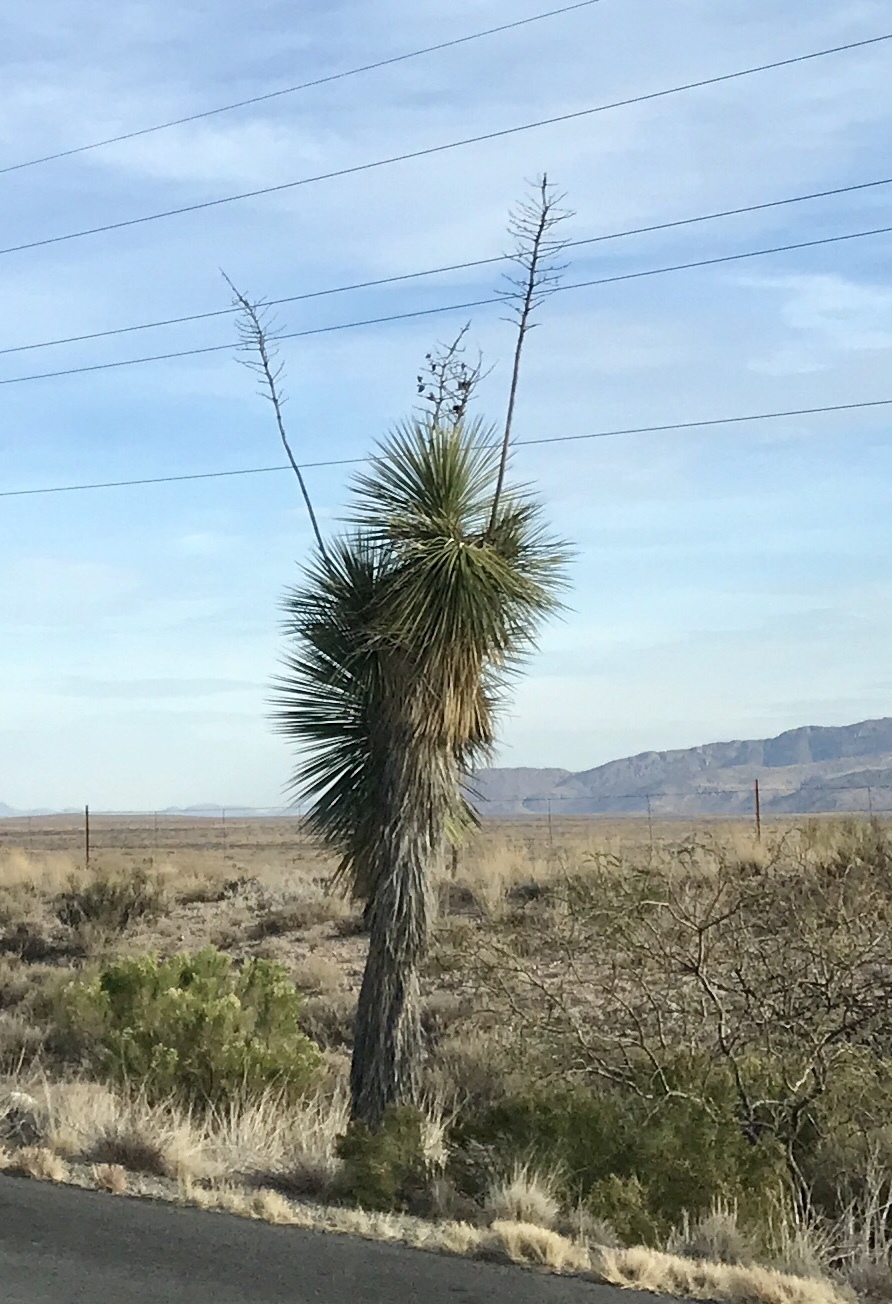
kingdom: Plantae
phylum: Tracheophyta
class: Liliopsida
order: Asparagales
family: Asparagaceae
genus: Yucca
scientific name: Yucca elata
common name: Palmella
